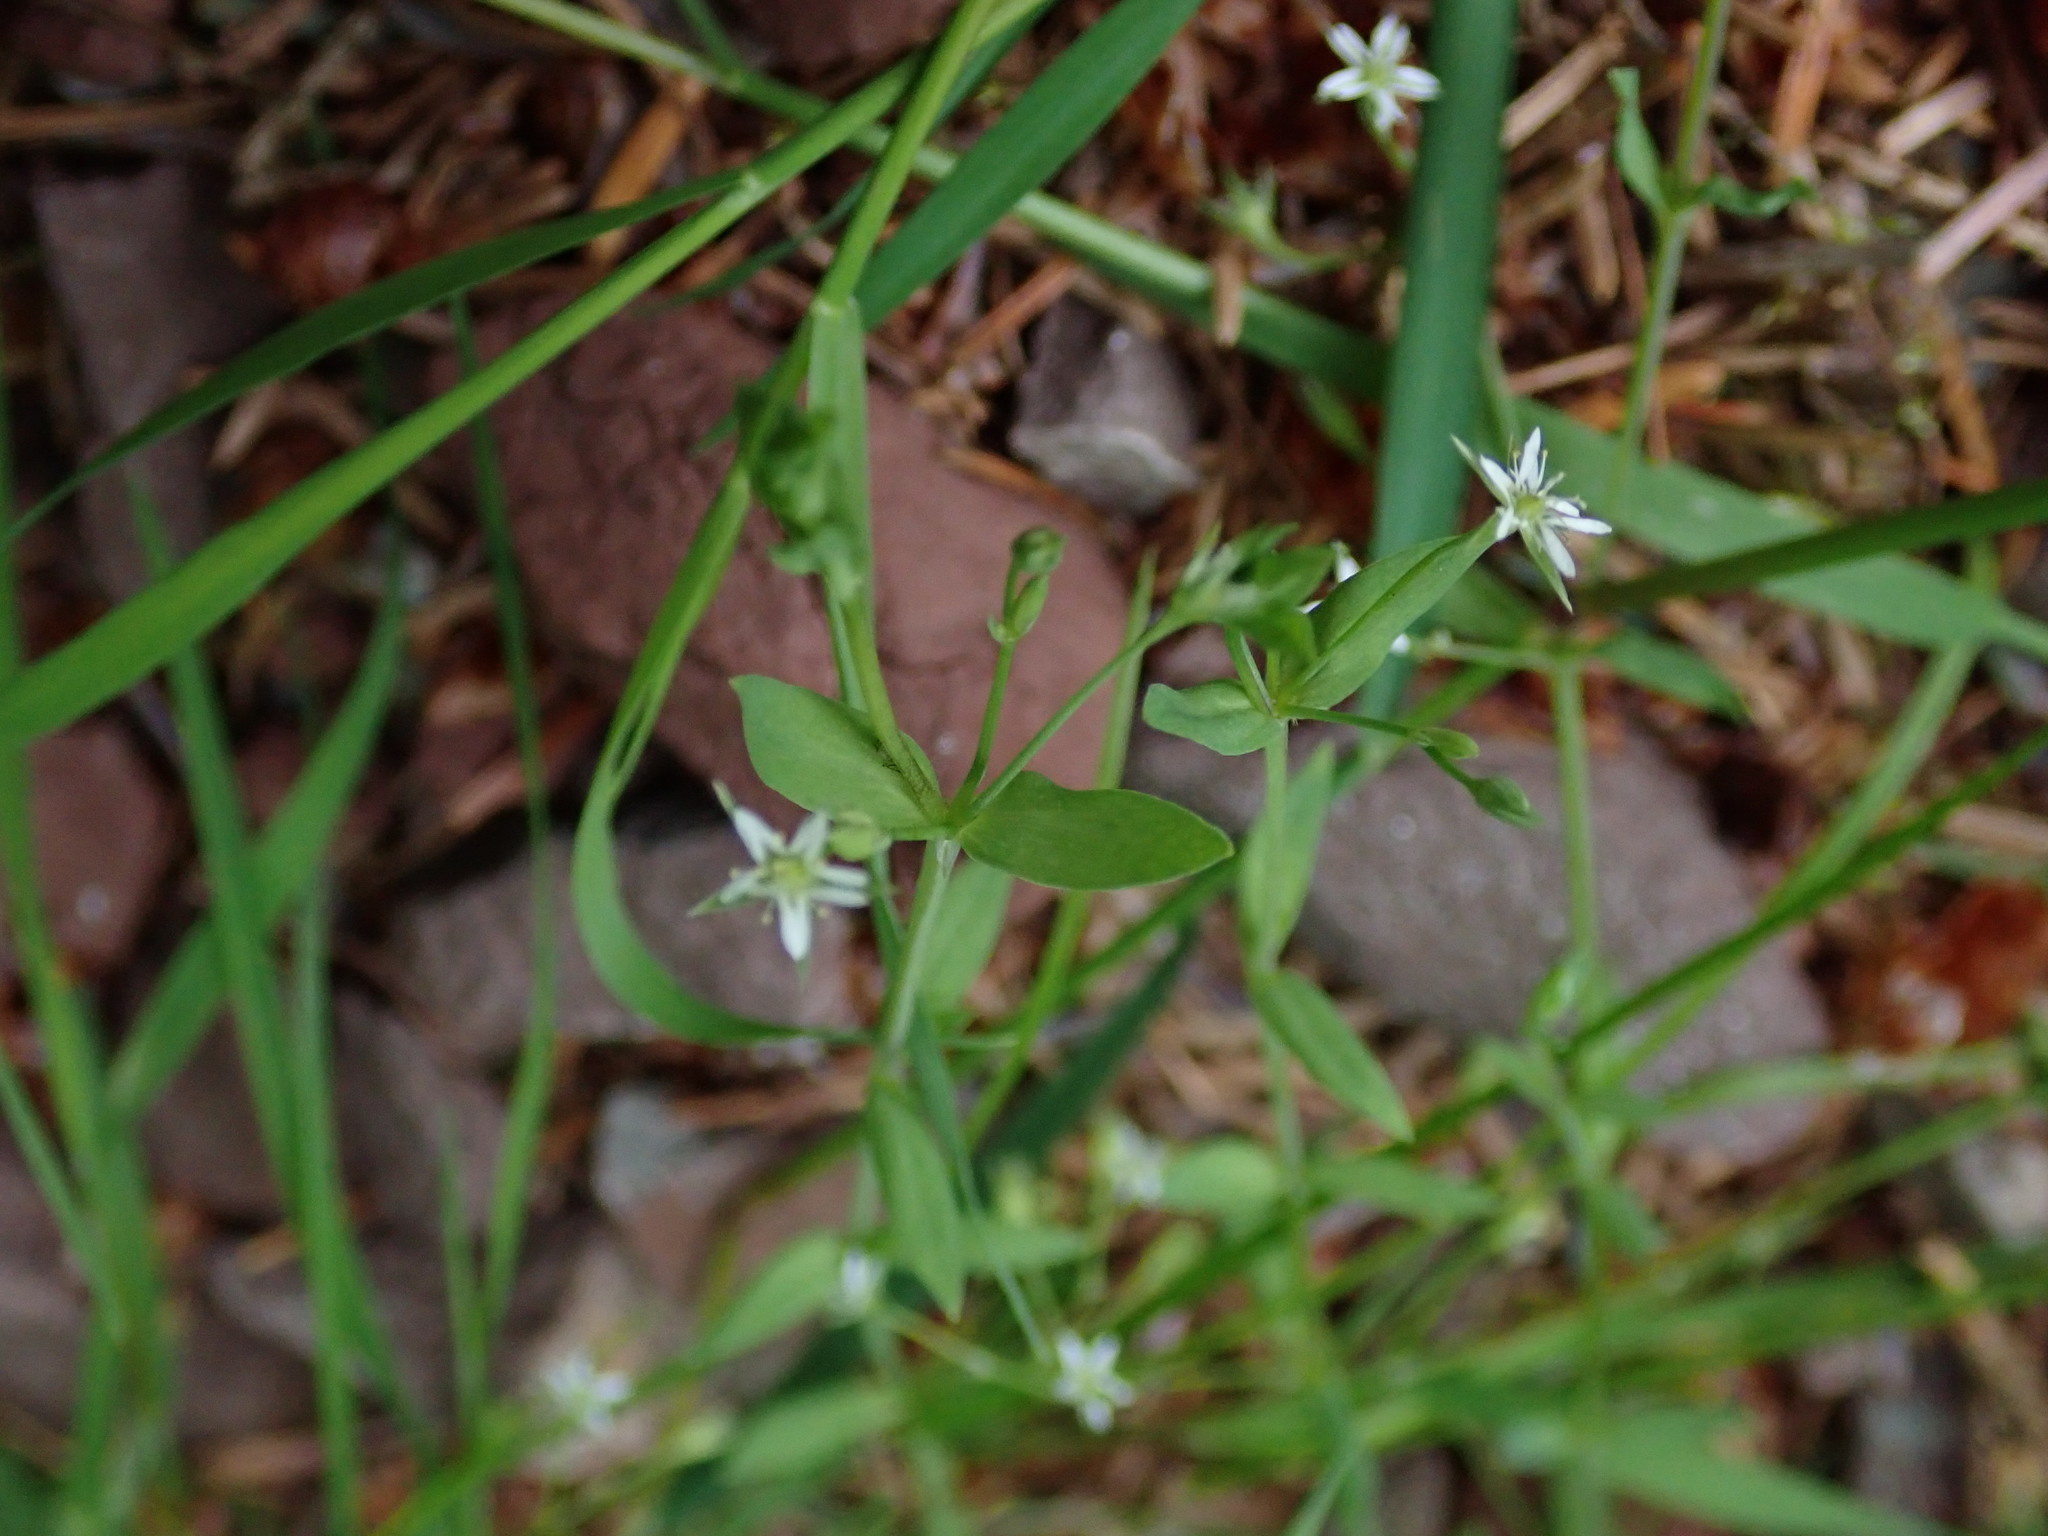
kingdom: Plantae
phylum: Tracheophyta
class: Magnoliopsida
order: Caryophyllales
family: Caryophyllaceae
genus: Stellaria
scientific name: Stellaria alsine
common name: Bog stitchwort
